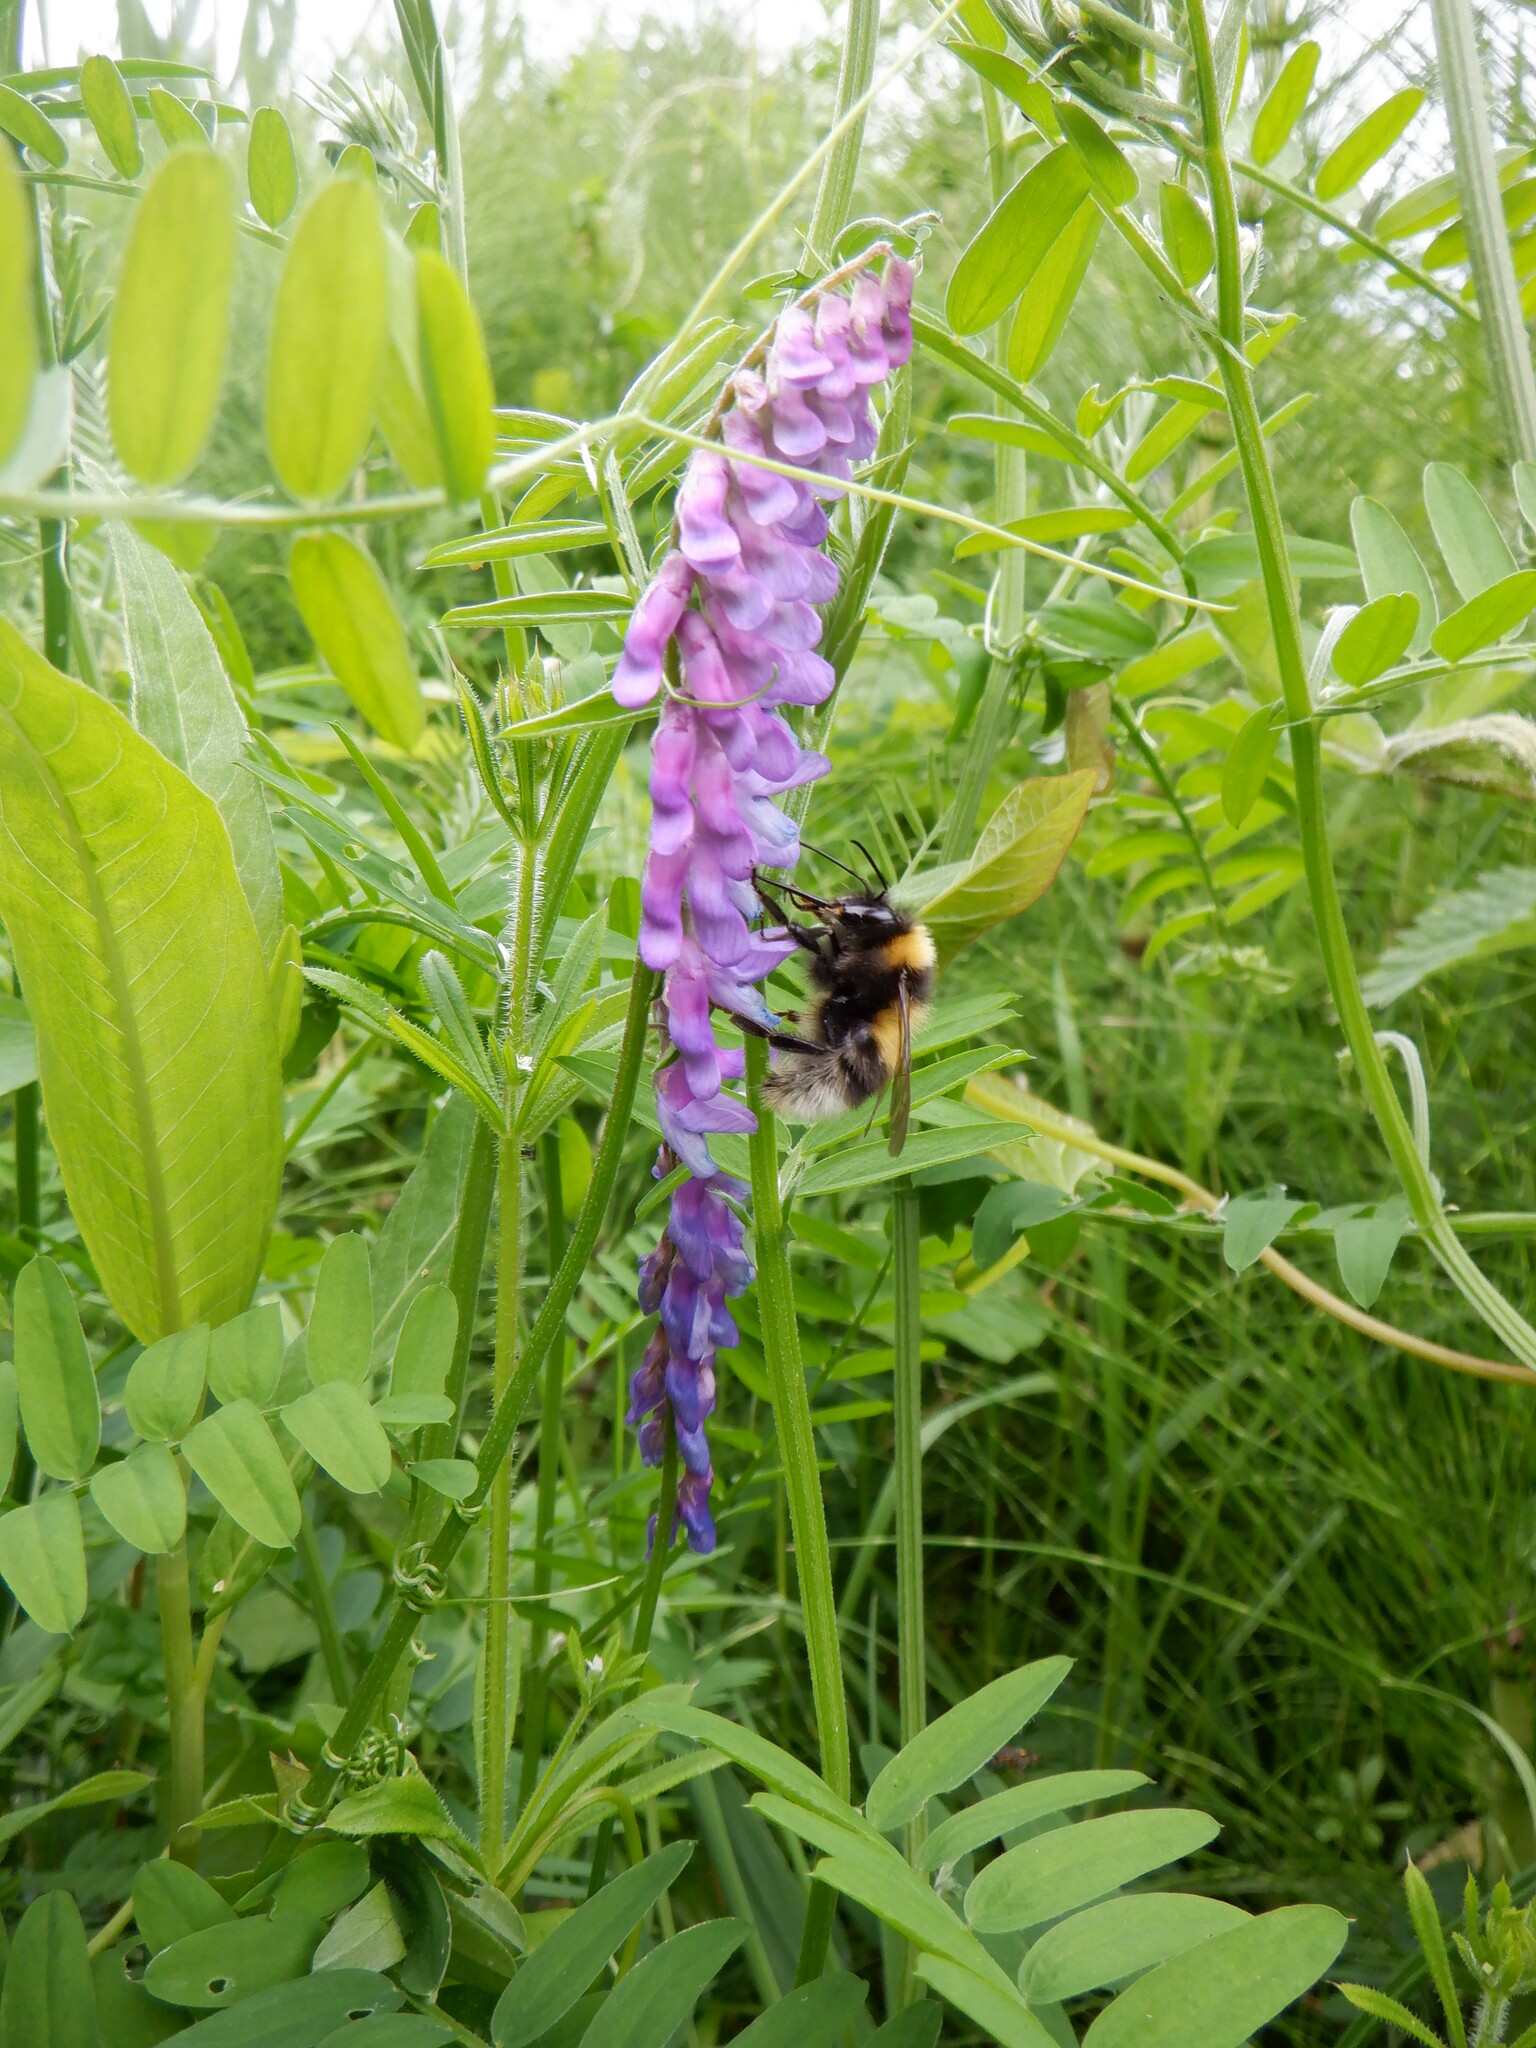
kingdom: Plantae
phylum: Tracheophyta
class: Magnoliopsida
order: Fabales
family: Fabaceae
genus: Vicia
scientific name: Vicia cracca
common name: Bird vetch
